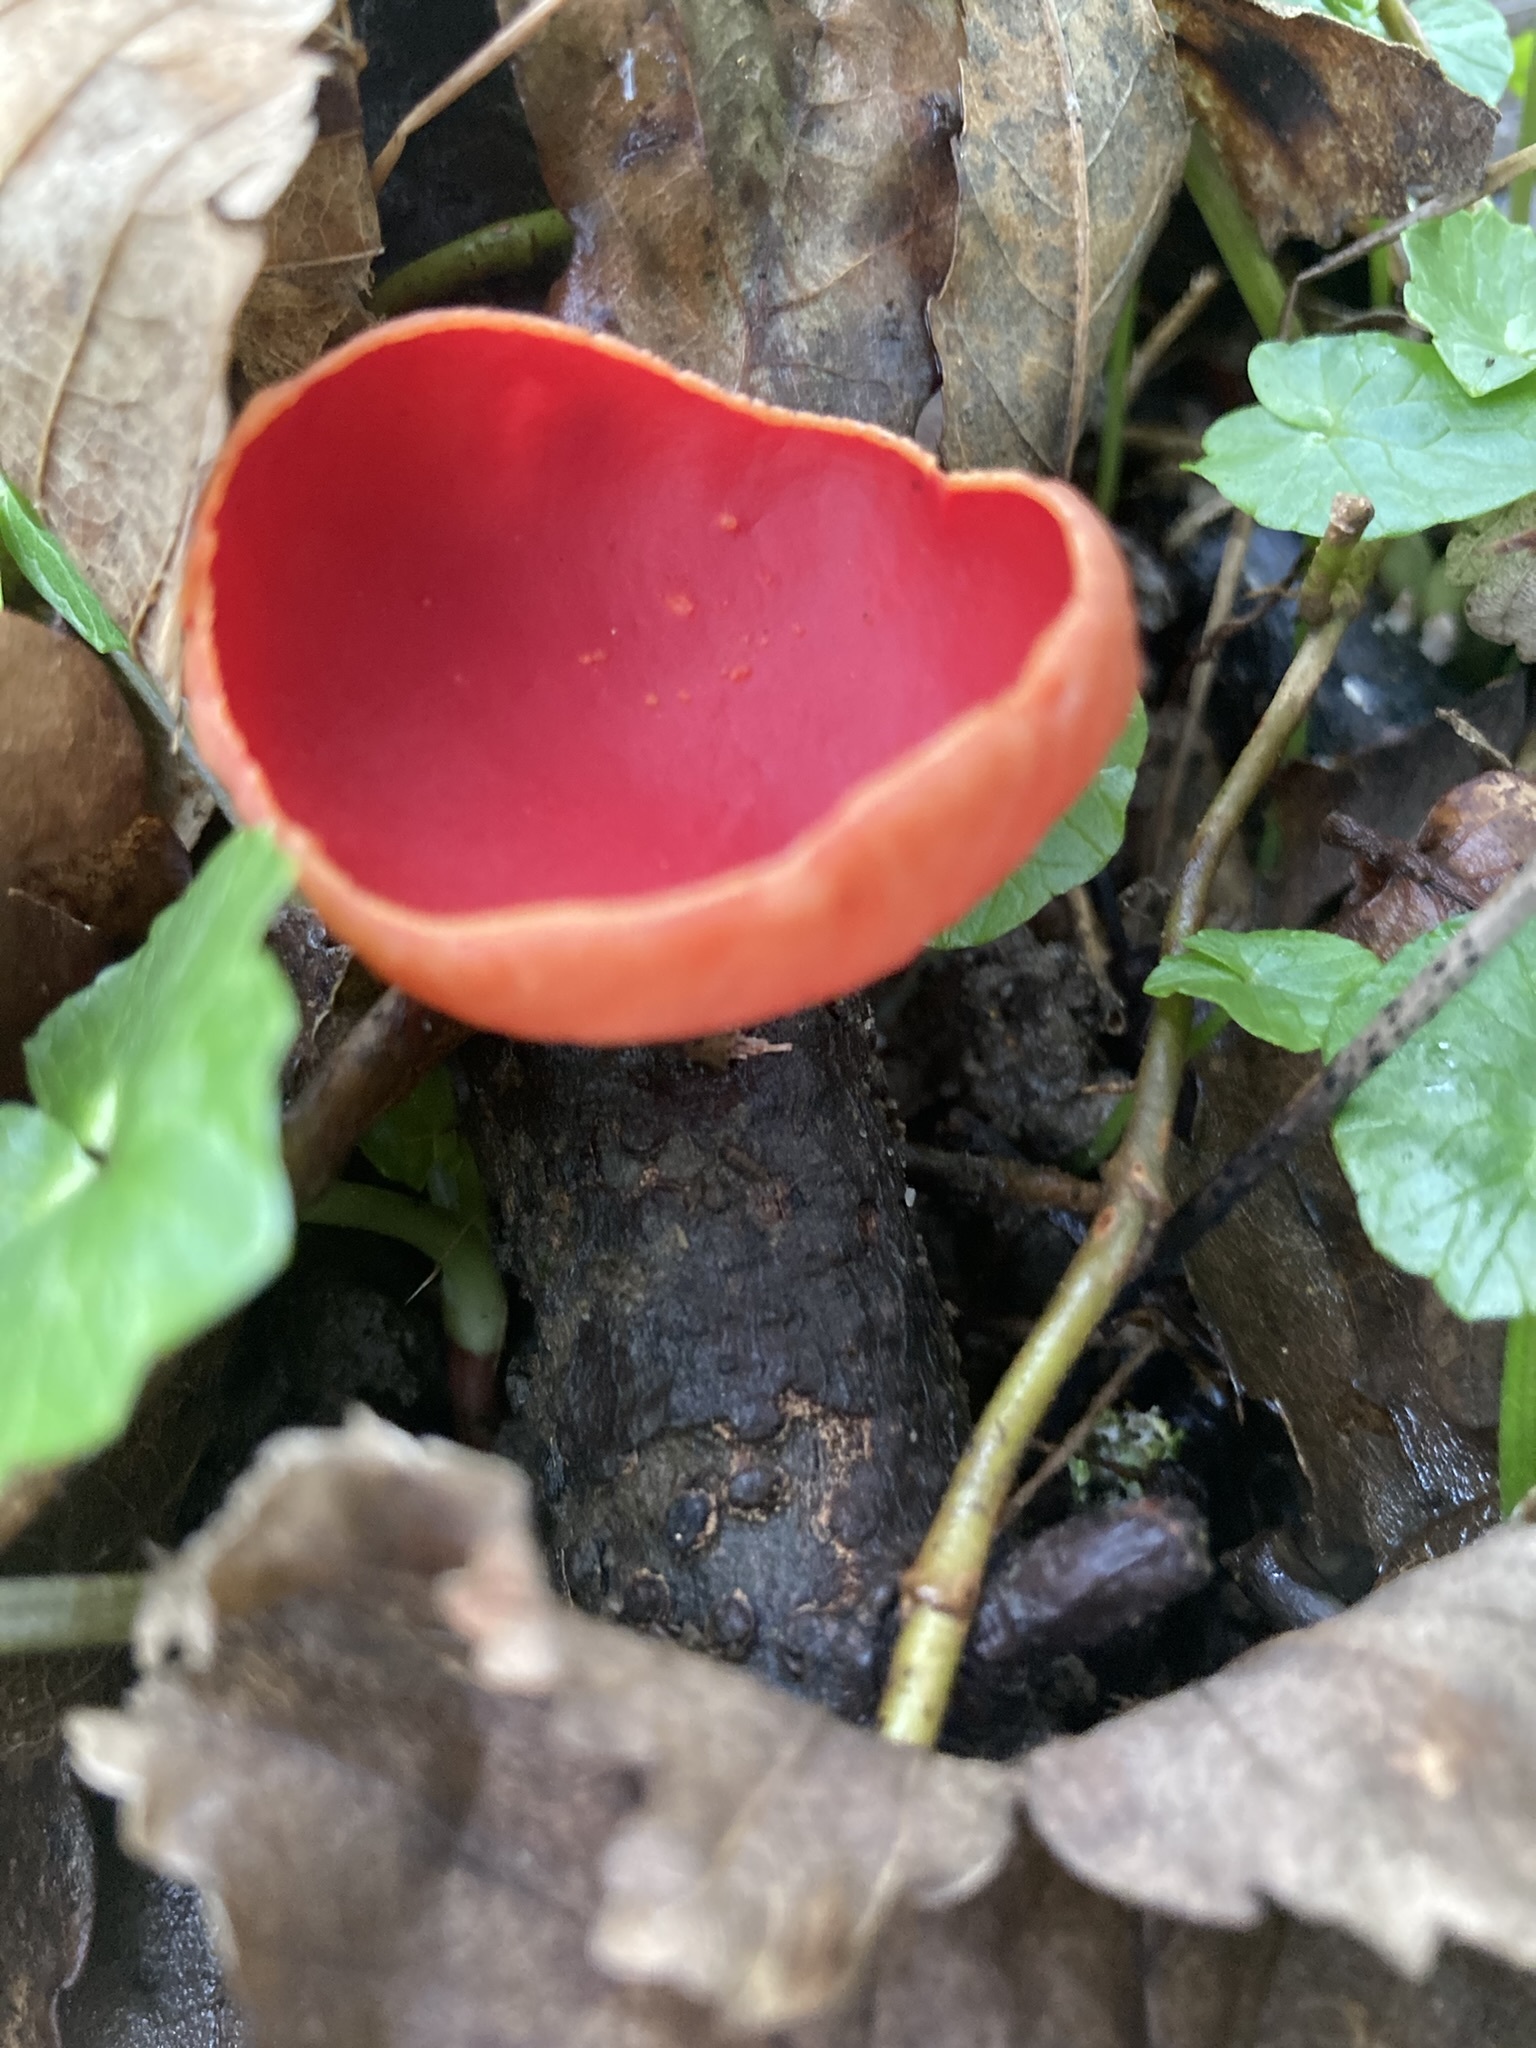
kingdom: Fungi
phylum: Ascomycota
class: Pezizomycetes
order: Pezizales
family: Sarcoscyphaceae
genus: Sarcoscypha
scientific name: Sarcoscypha
